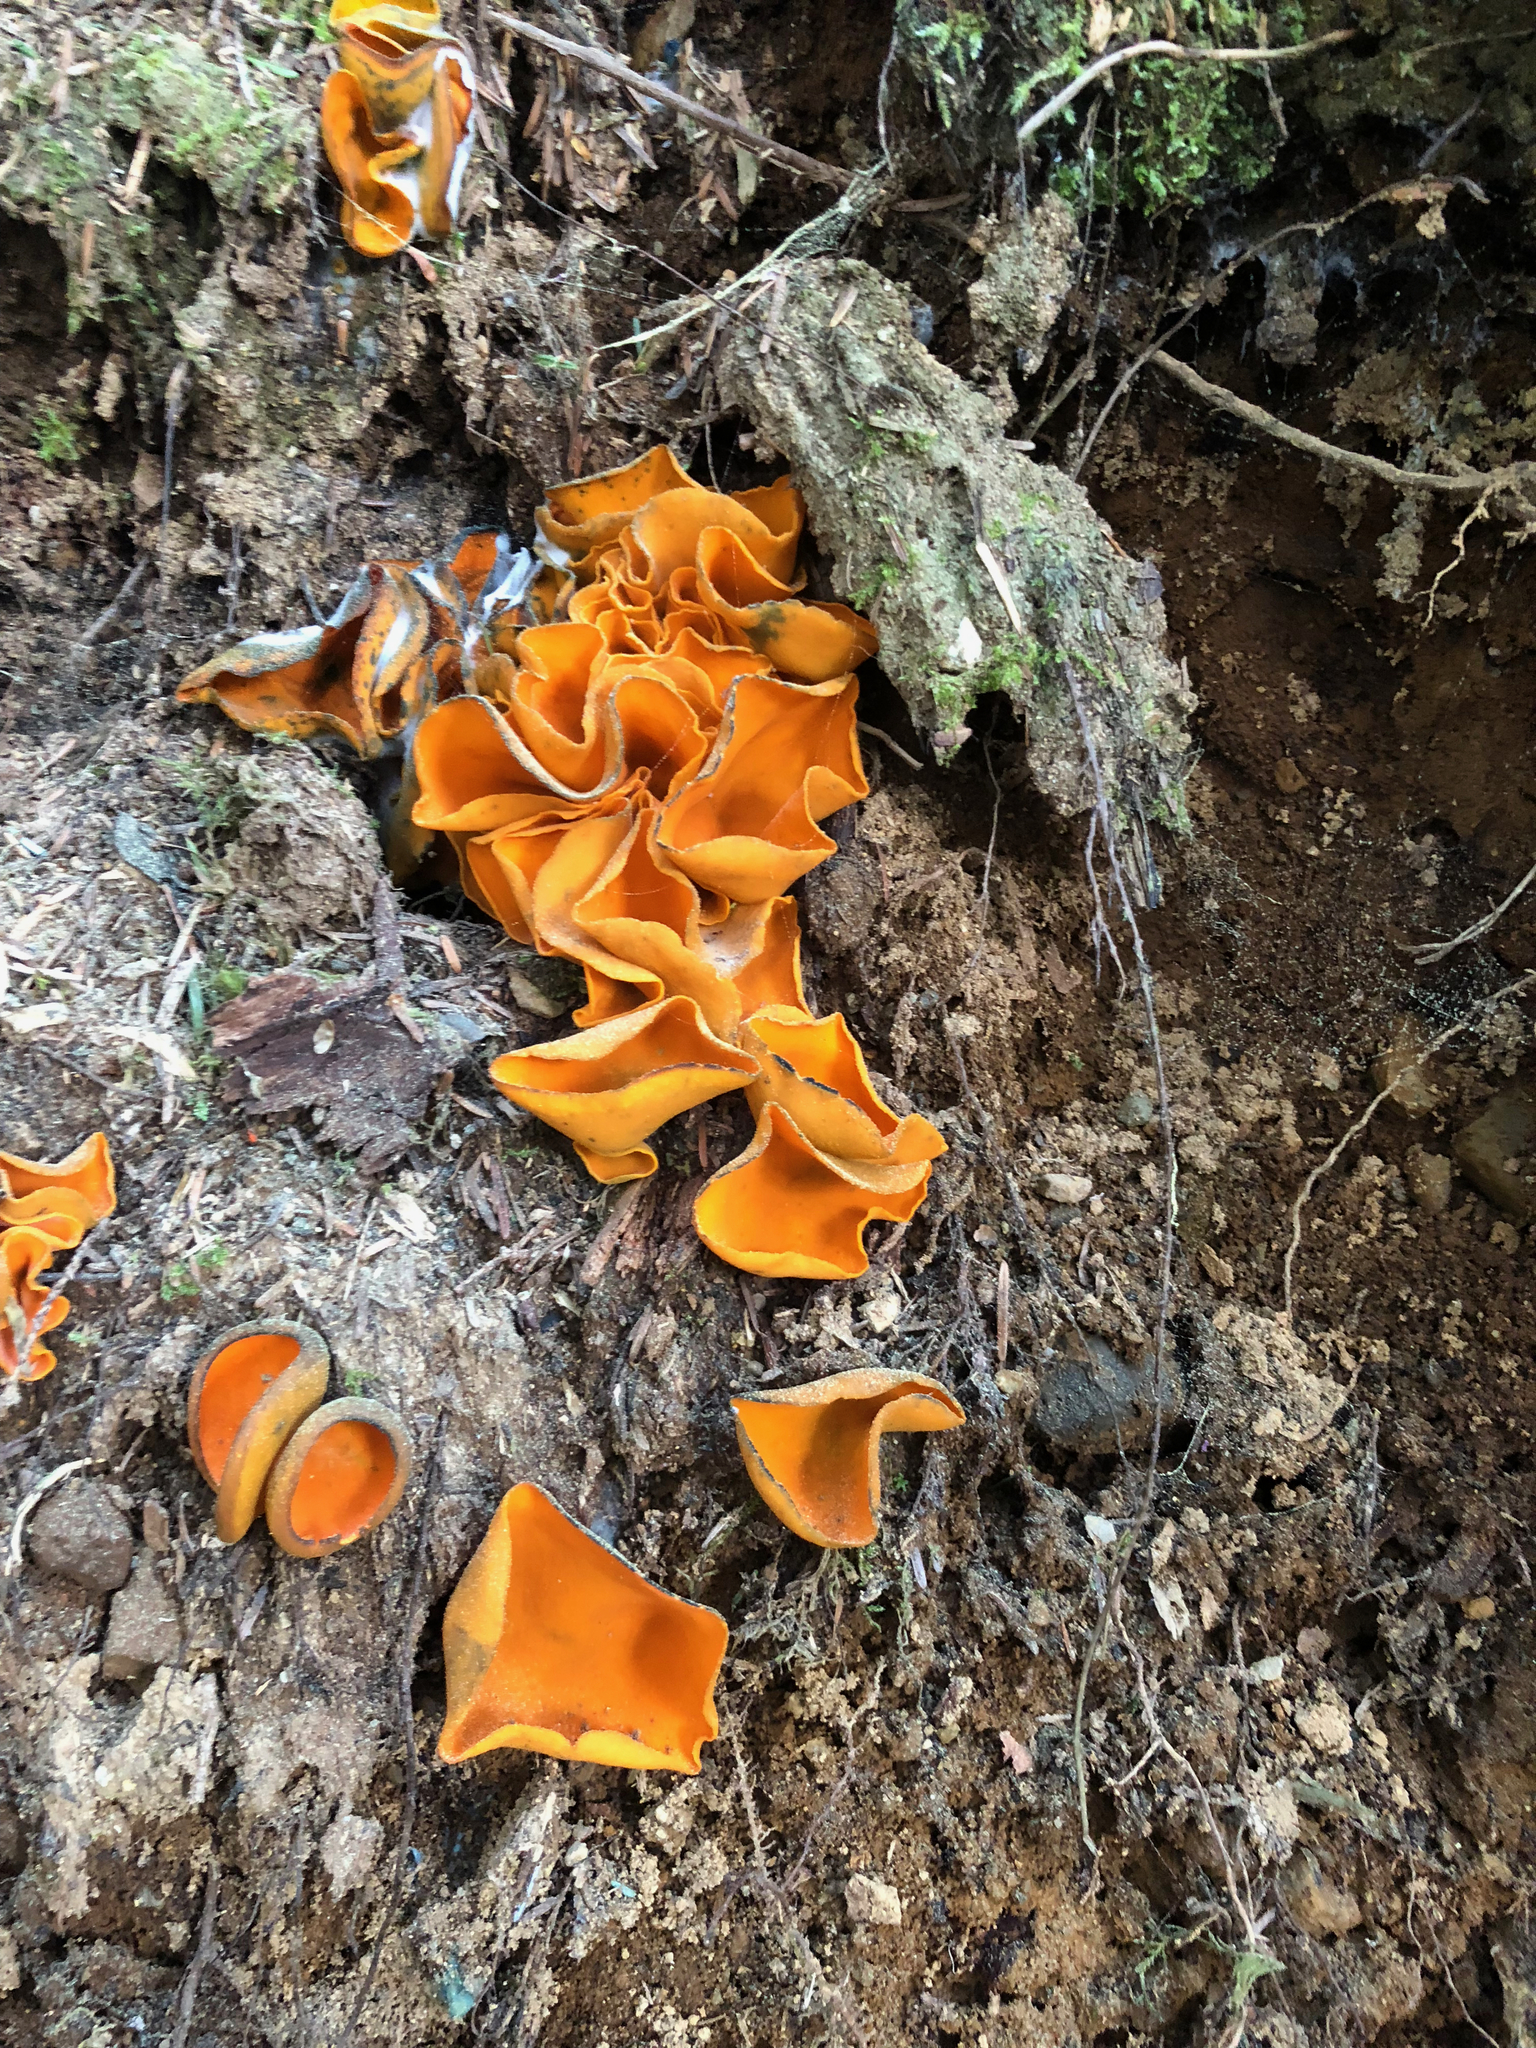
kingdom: Fungi
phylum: Ascomycota
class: Pezizomycetes
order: Pezizales
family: Pyronemataceae
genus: Aleuria
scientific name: Aleuria aurantia
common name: Orange peel fungus
